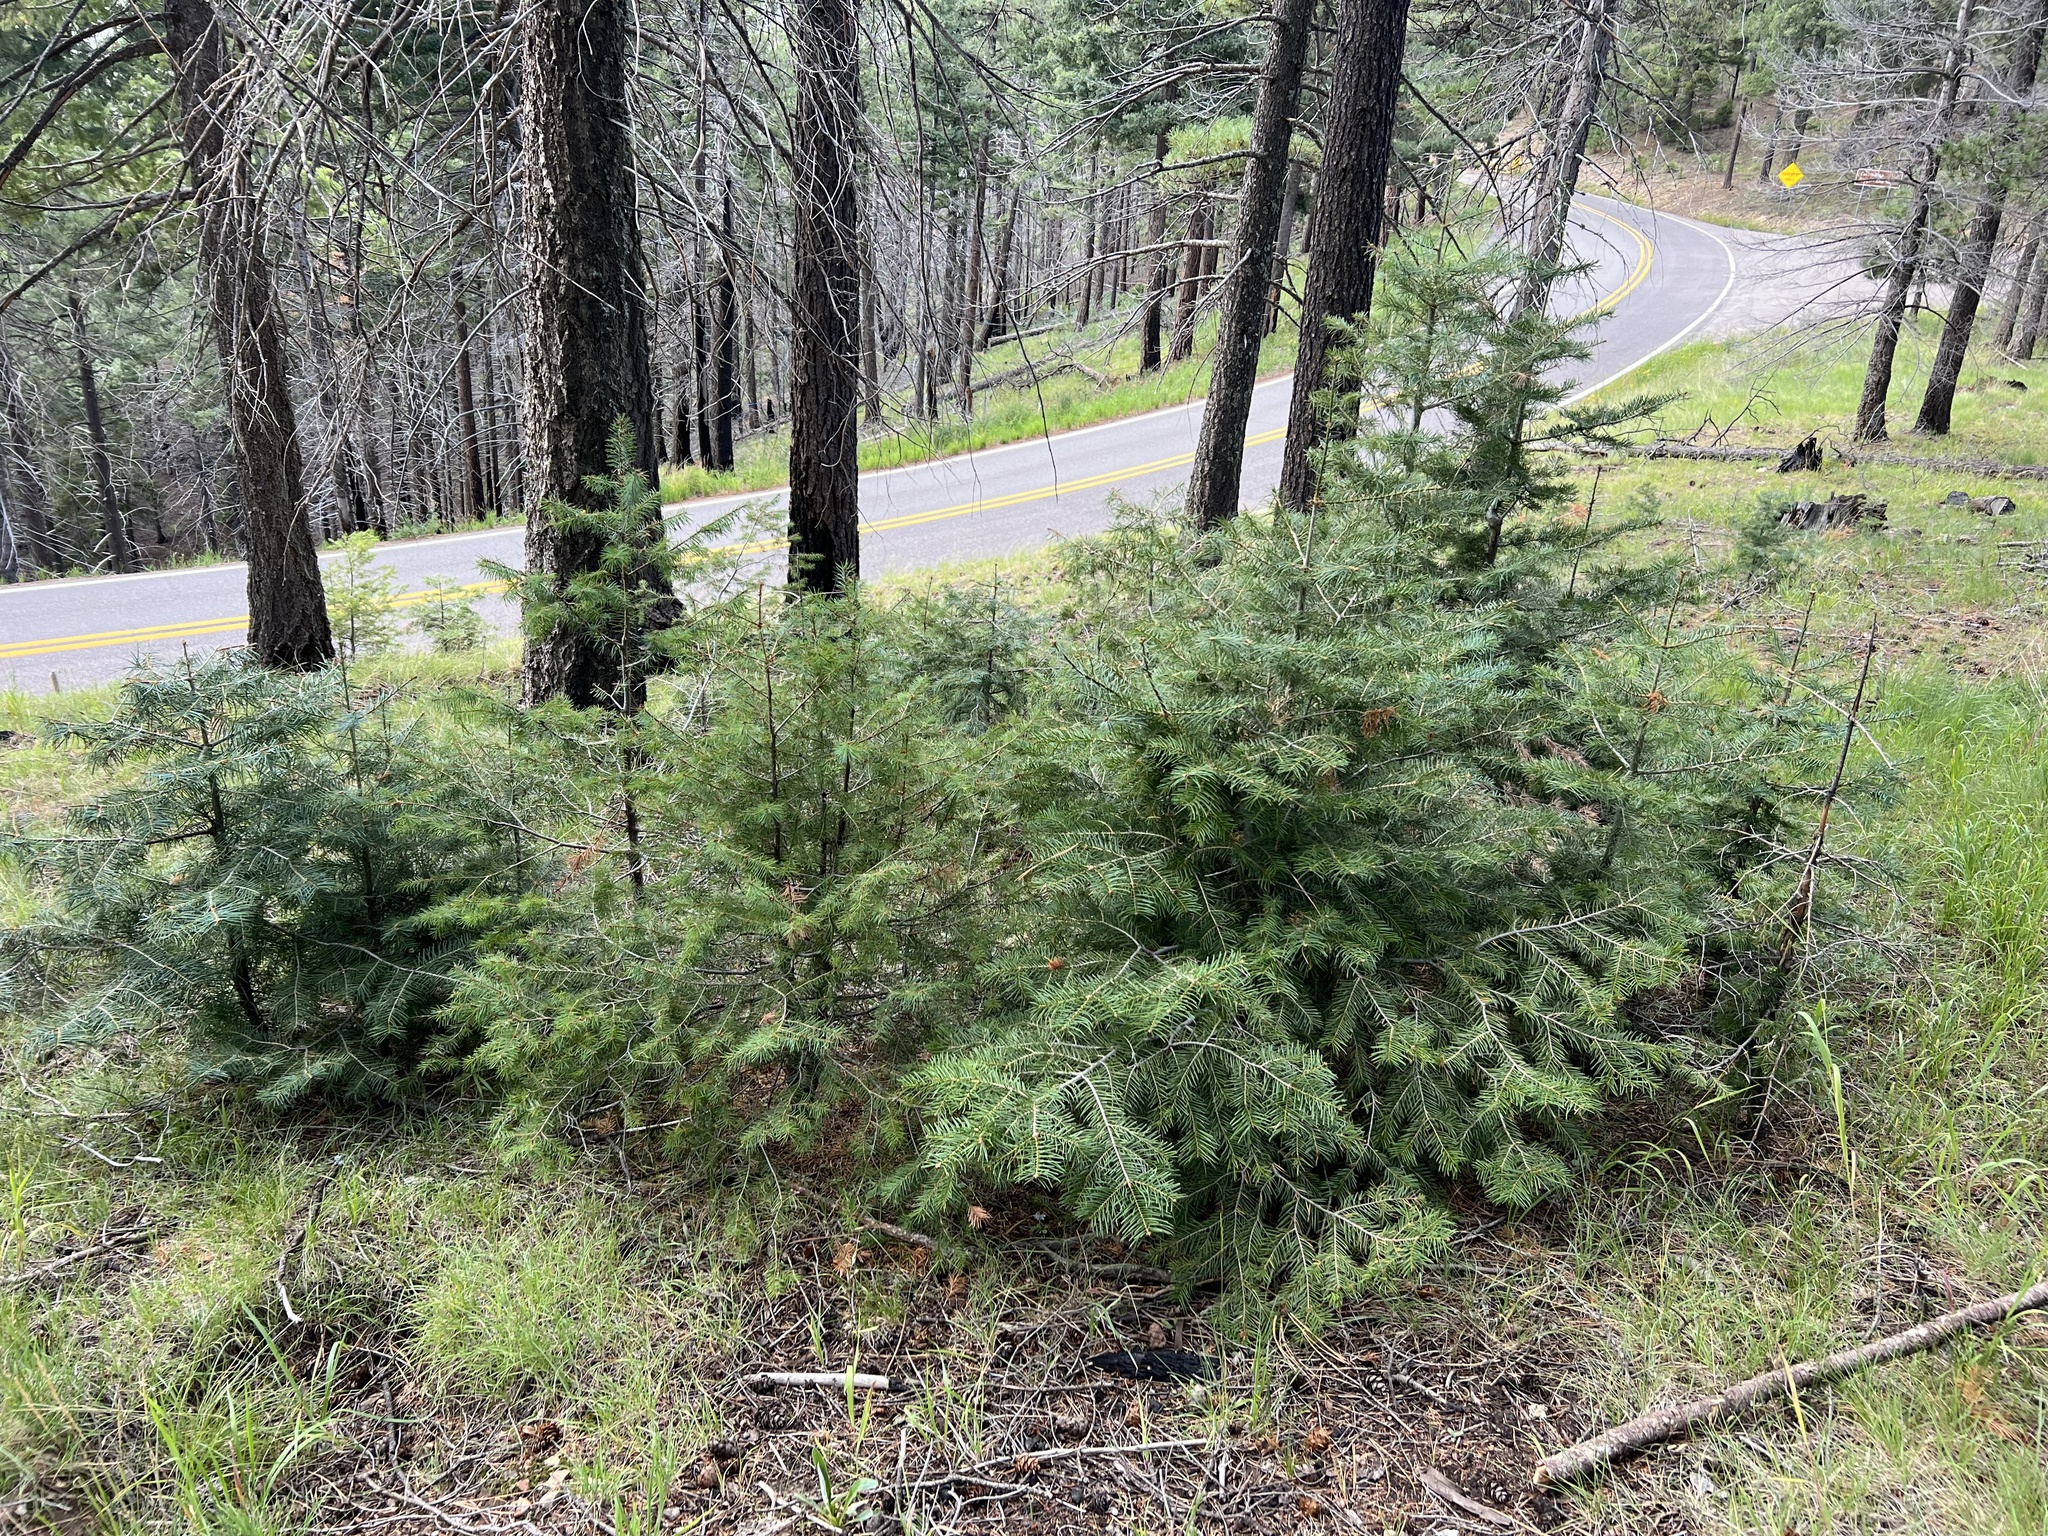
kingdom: Plantae
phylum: Tracheophyta
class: Pinopsida
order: Pinales
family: Pinaceae
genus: Abies
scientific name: Abies concolor
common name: Colorado fir
